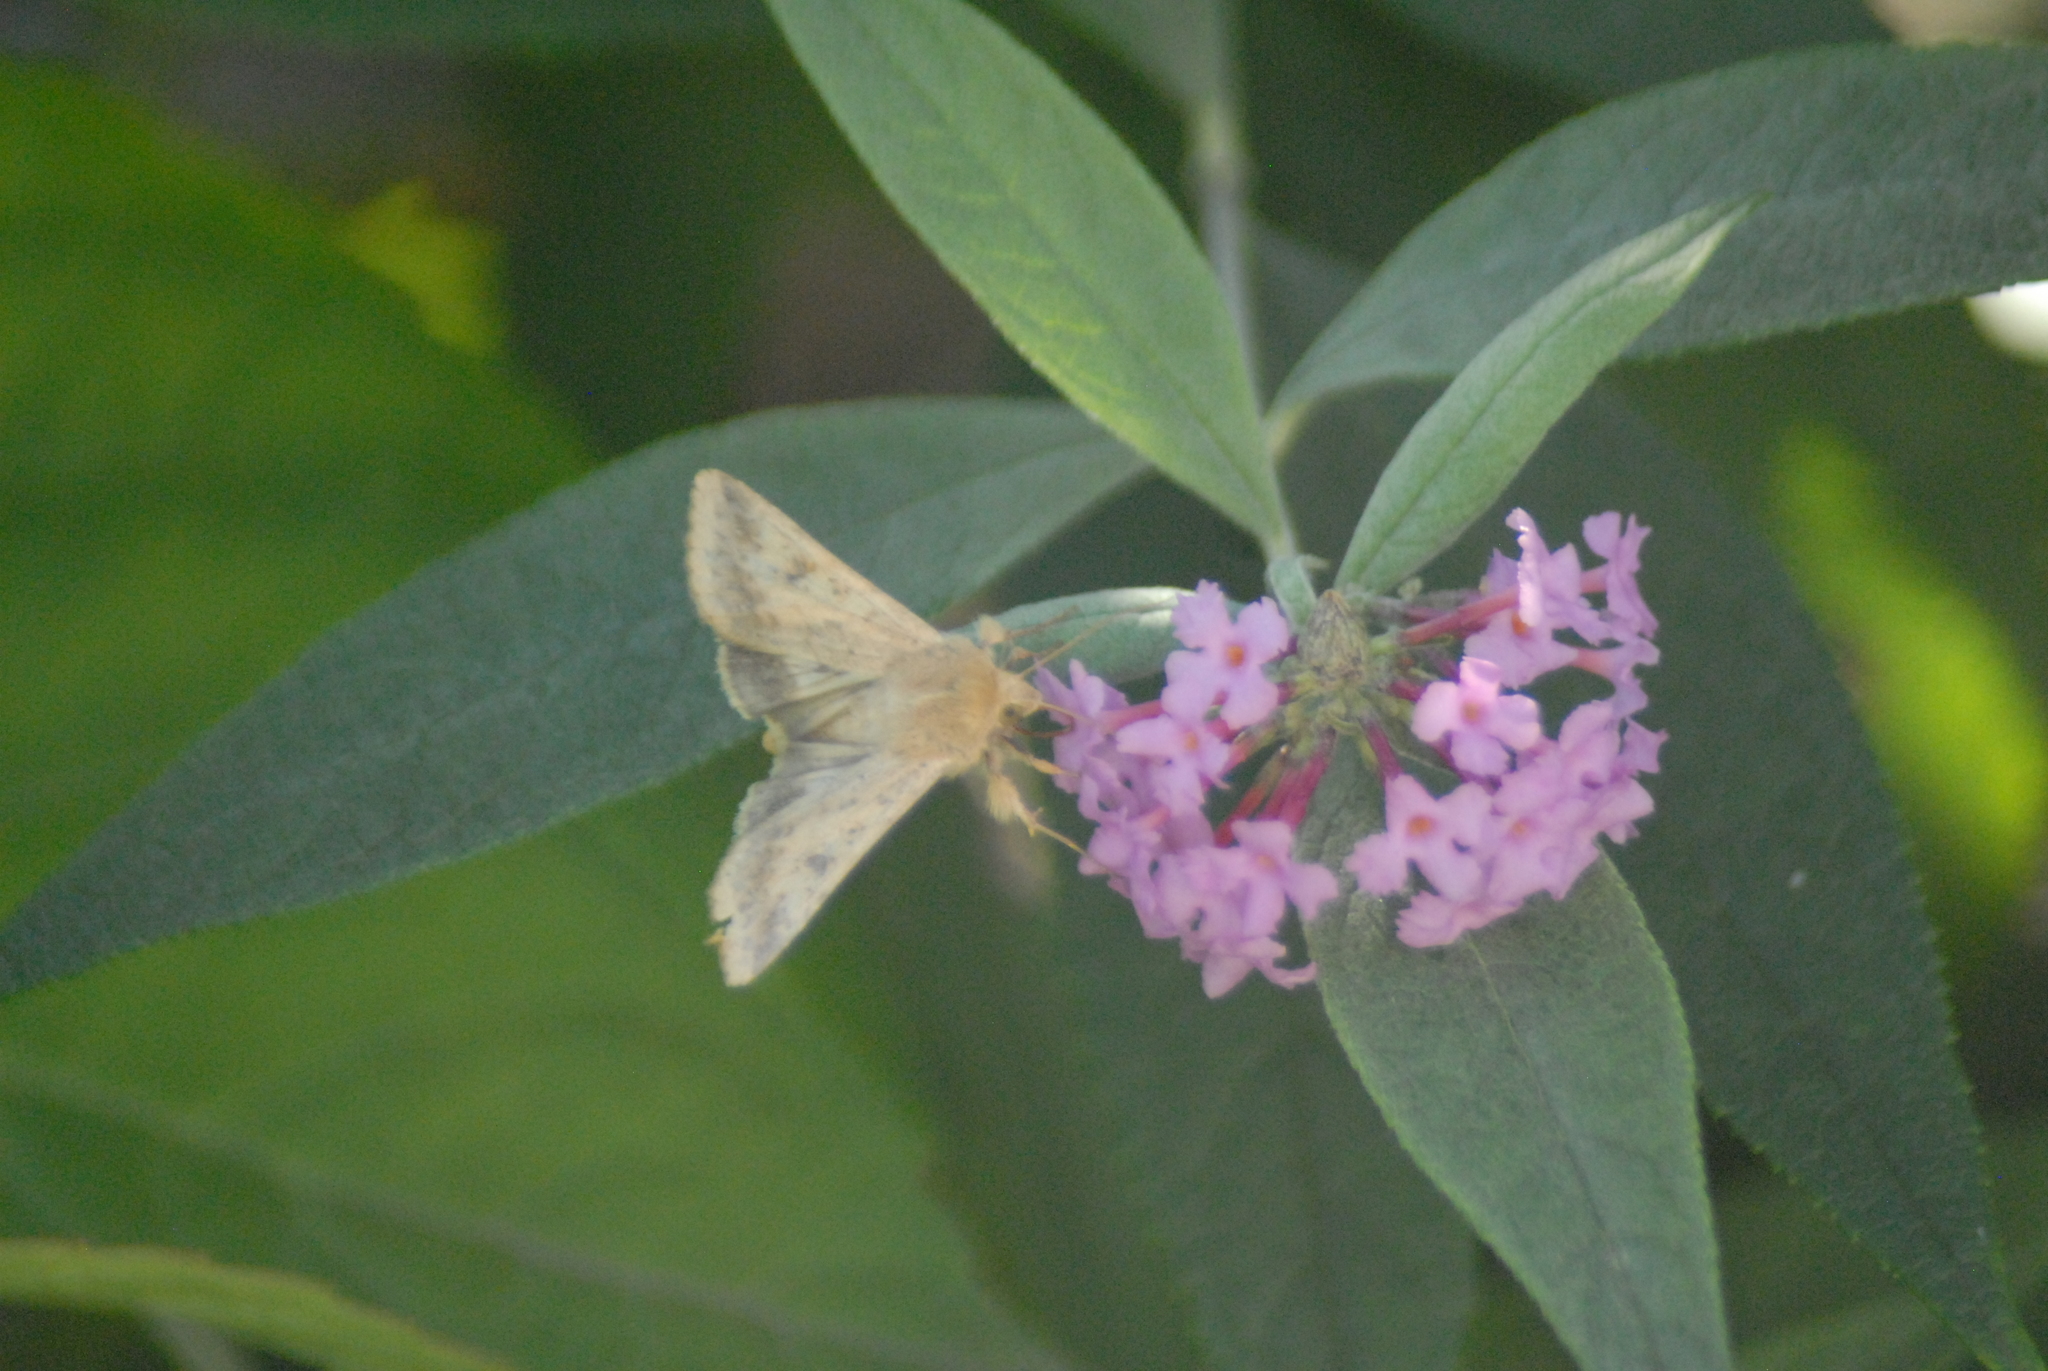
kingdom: Animalia
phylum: Arthropoda
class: Insecta
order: Lepidoptera
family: Noctuidae
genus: Helicoverpa
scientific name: Helicoverpa armigera
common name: Cotton bollworm
